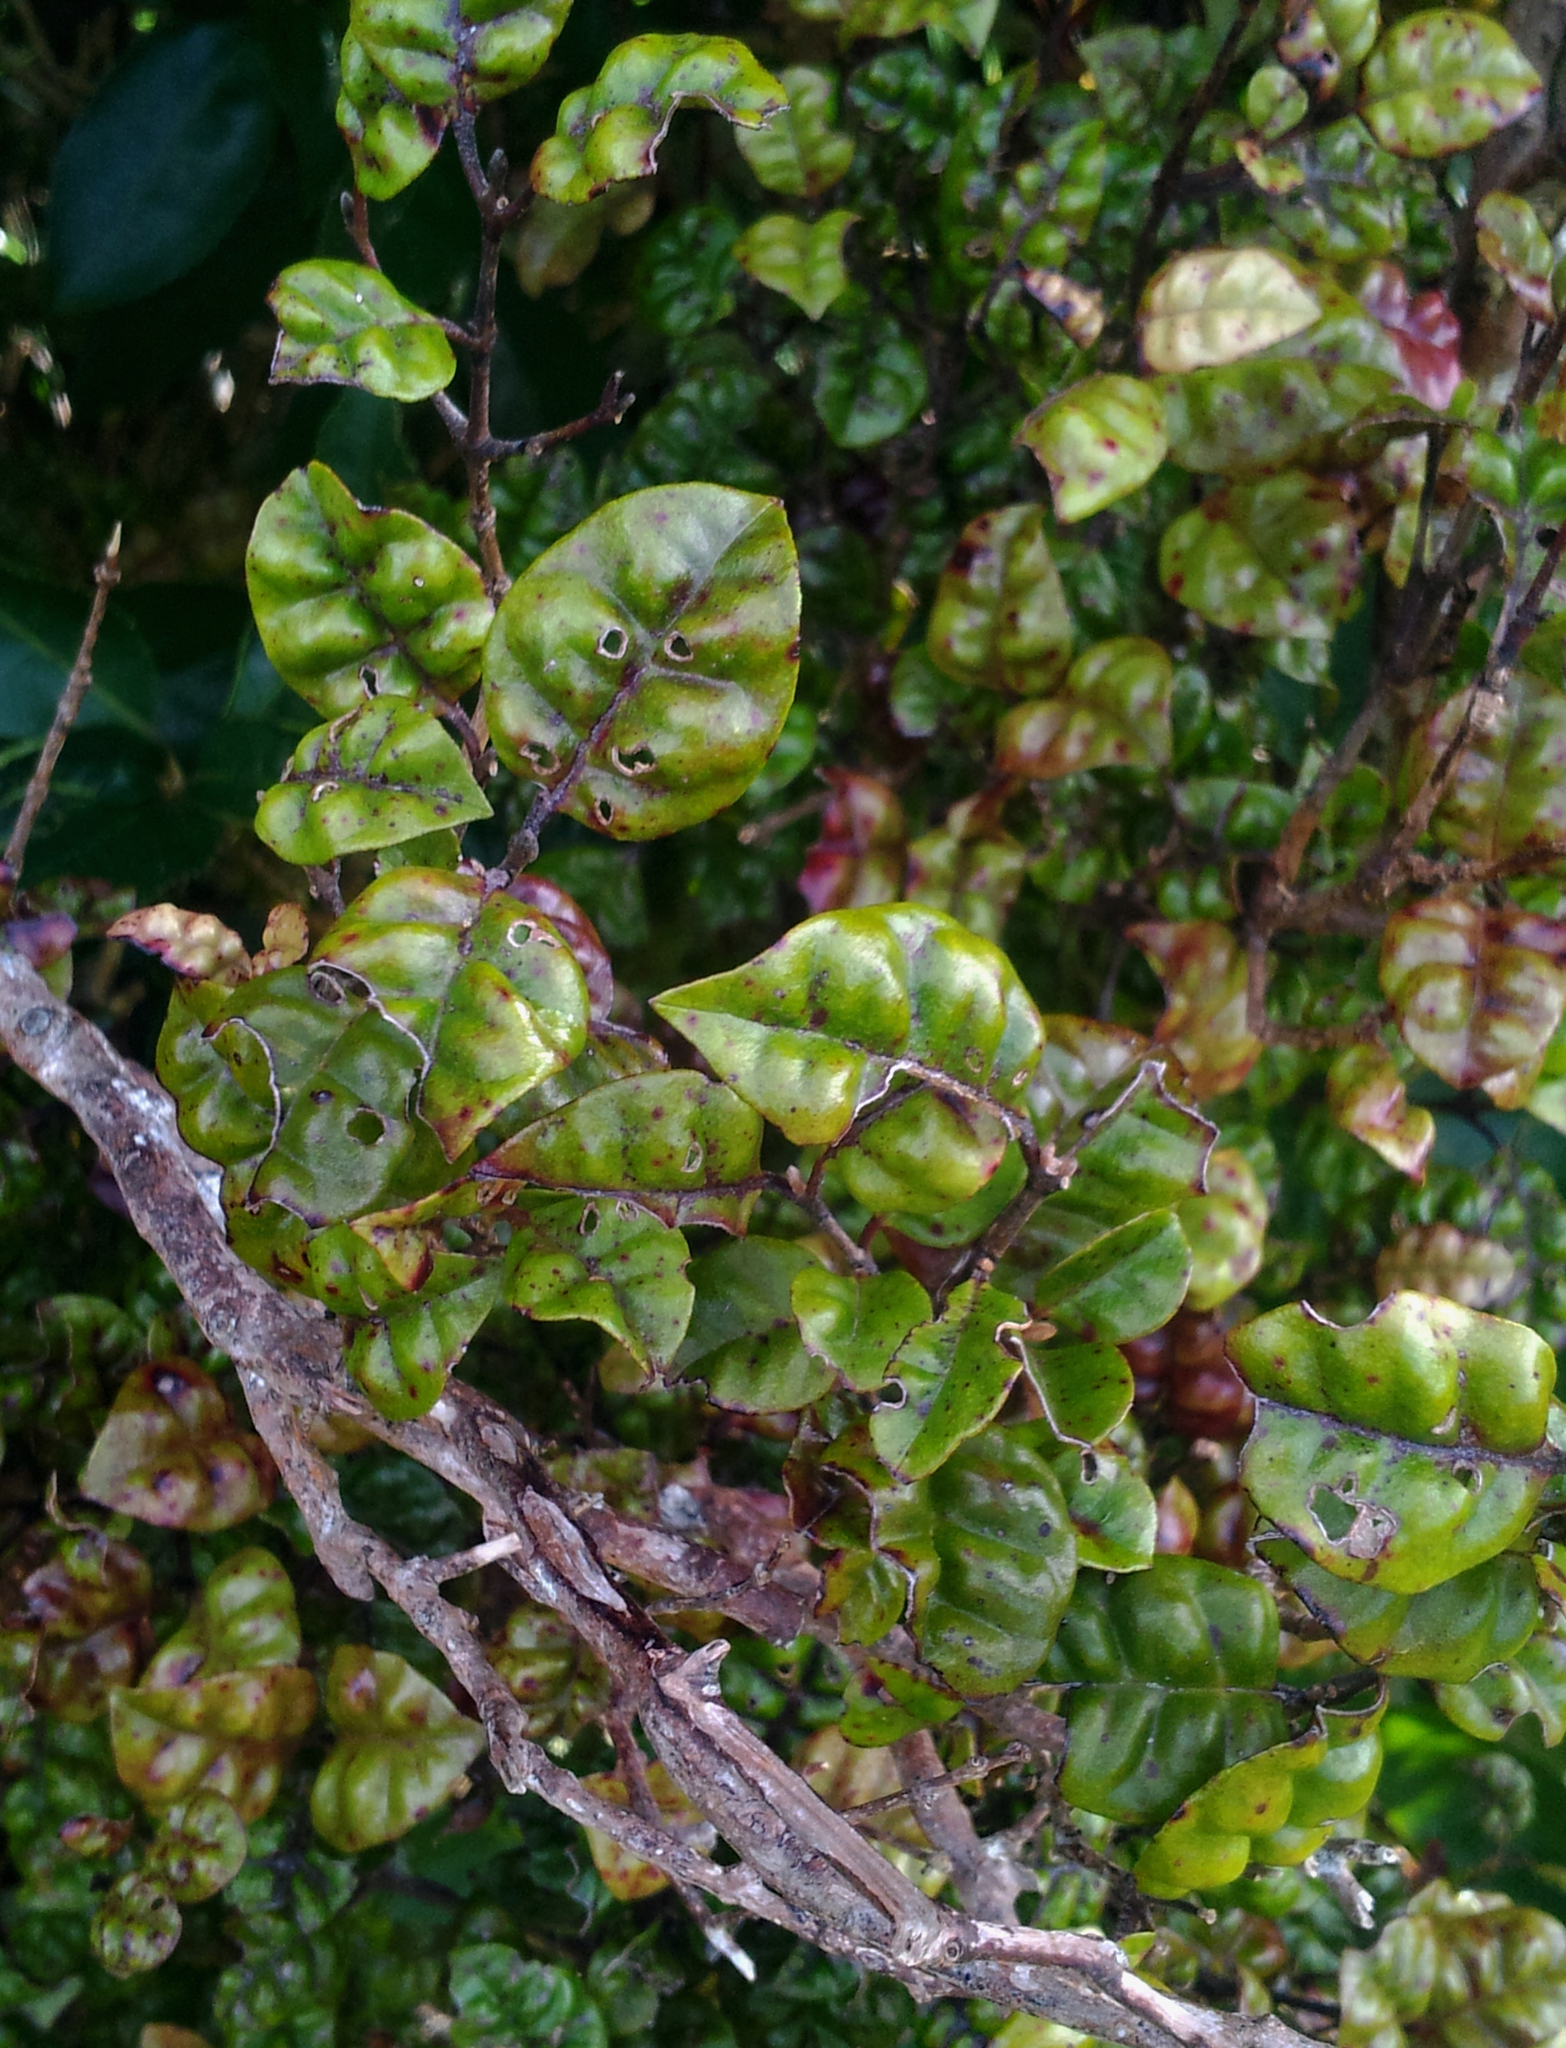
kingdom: Plantae
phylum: Tracheophyta
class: Magnoliopsida
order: Myrtales
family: Myrtaceae
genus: Lophomyrtus
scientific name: Lophomyrtus bullata
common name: Rama rama
